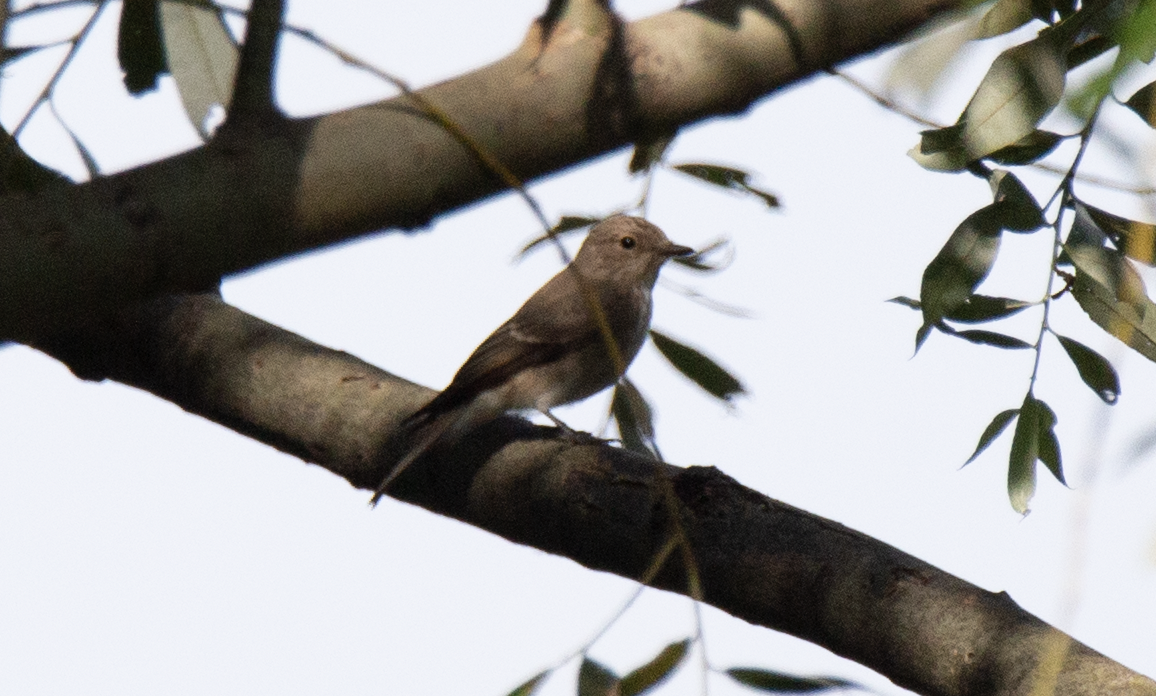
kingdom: Animalia
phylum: Chordata
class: Aves
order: Passeriformes
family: Muscicapidae
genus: Muscicapa
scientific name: Muscicapa striata
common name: Spotted flycatcher
